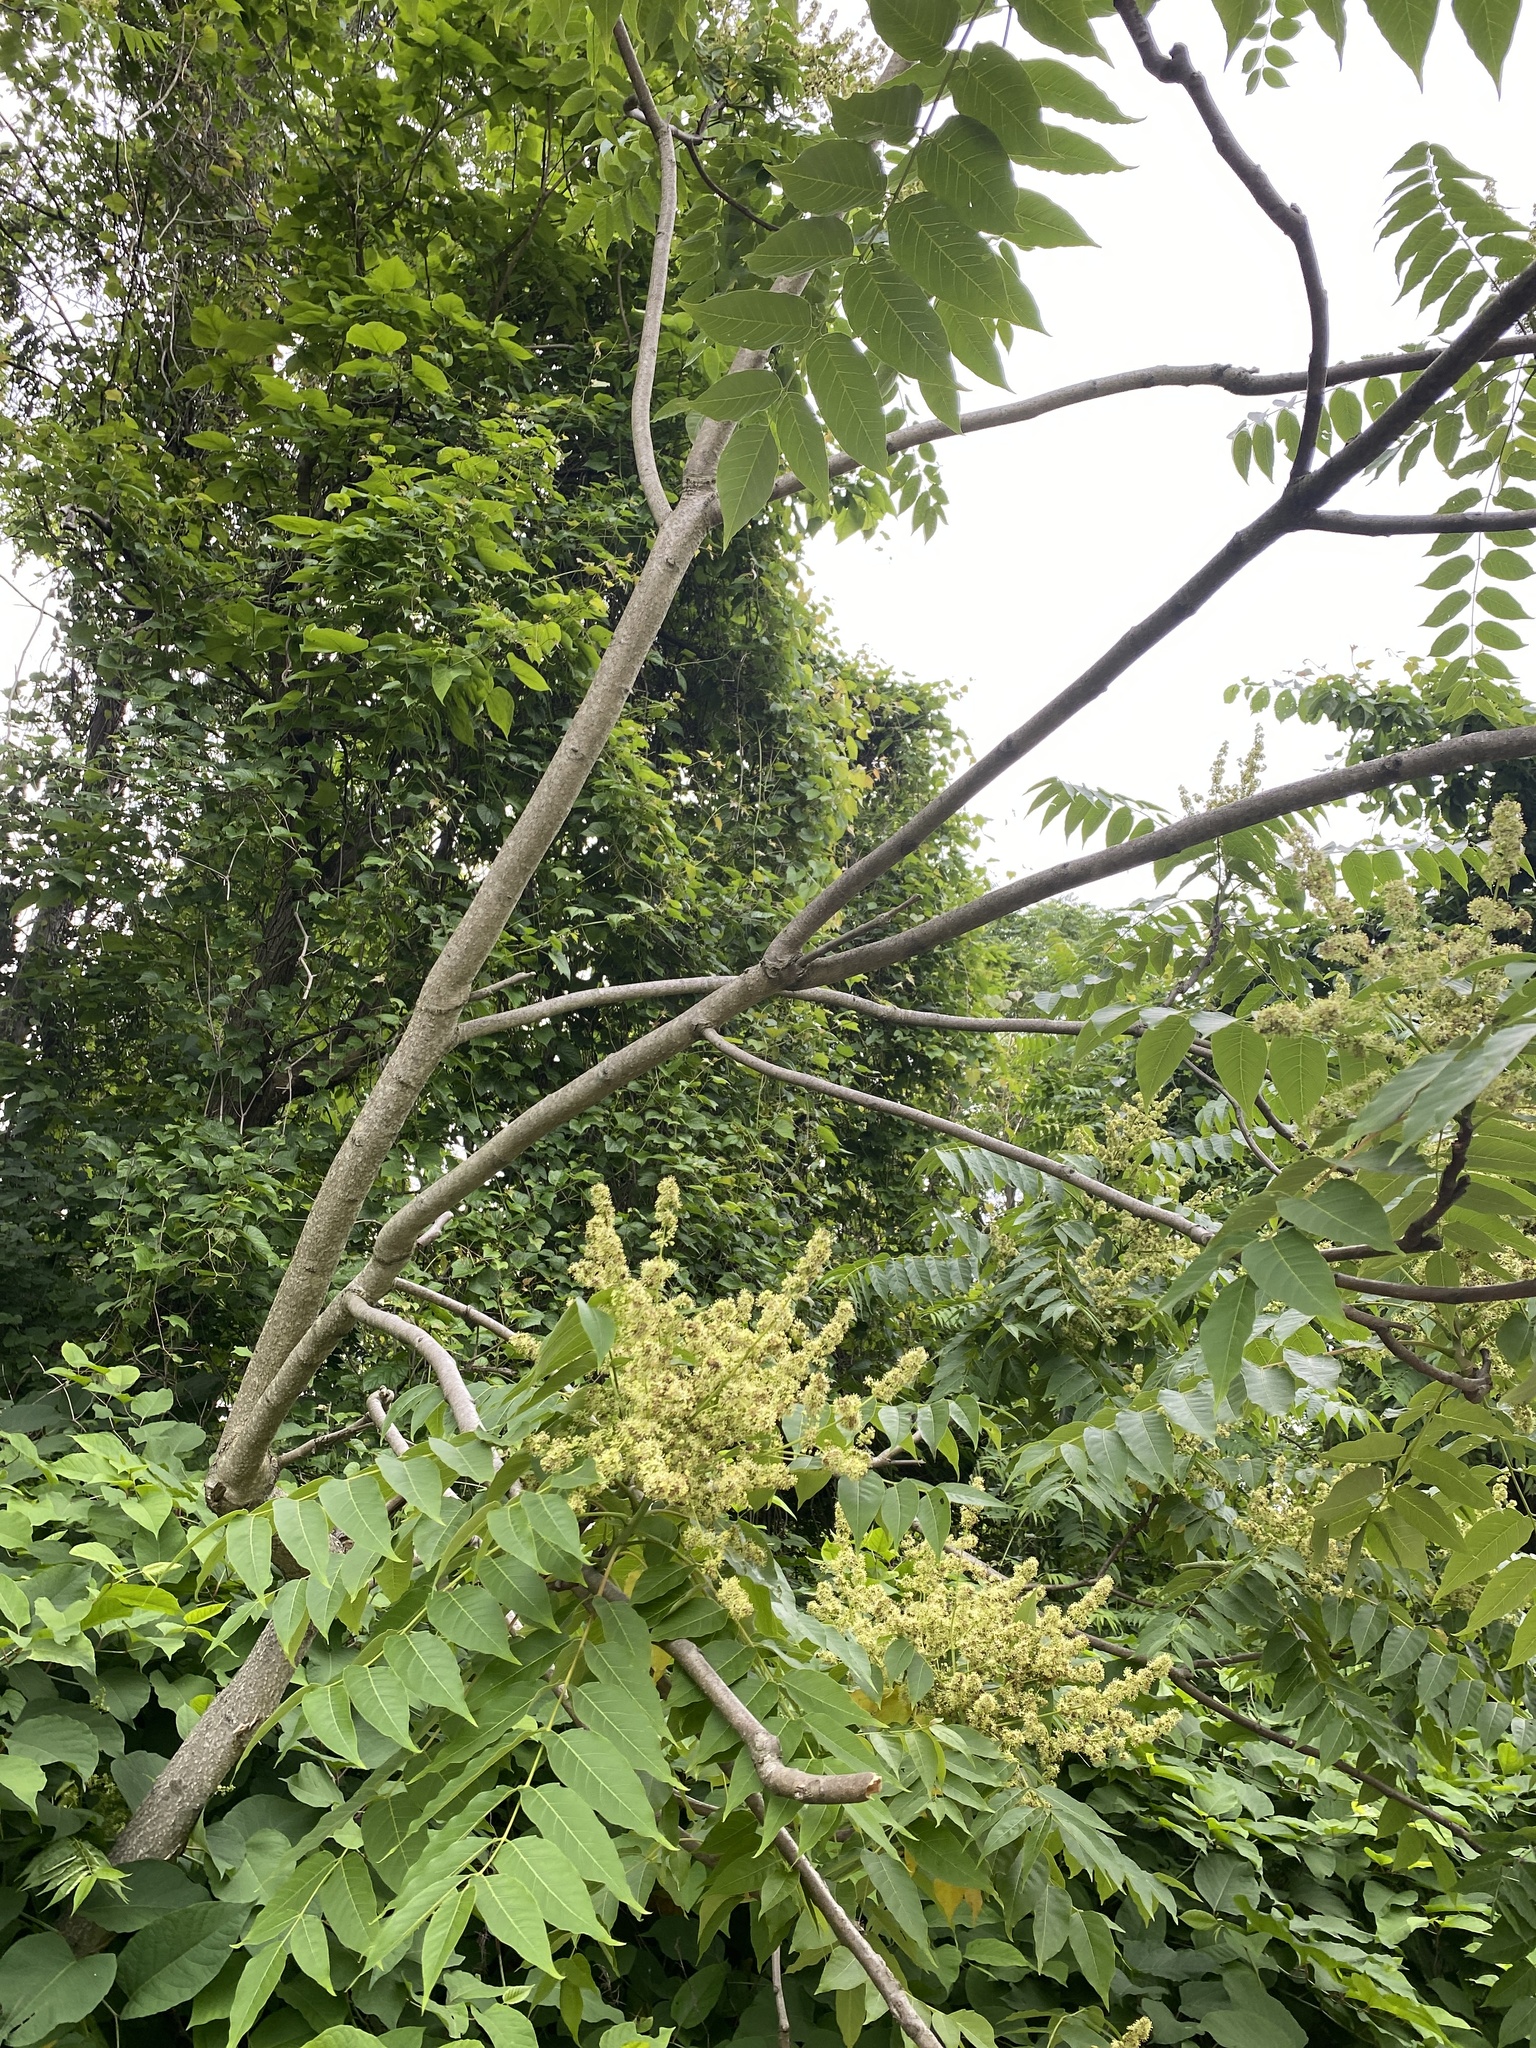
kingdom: Plantae
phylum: Tracheophyta
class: Magnoliopsida
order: Sapindales
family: Simaroubaceae
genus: Ailanthus
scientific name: Ailanthus altissima
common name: Tree-of-heaven
